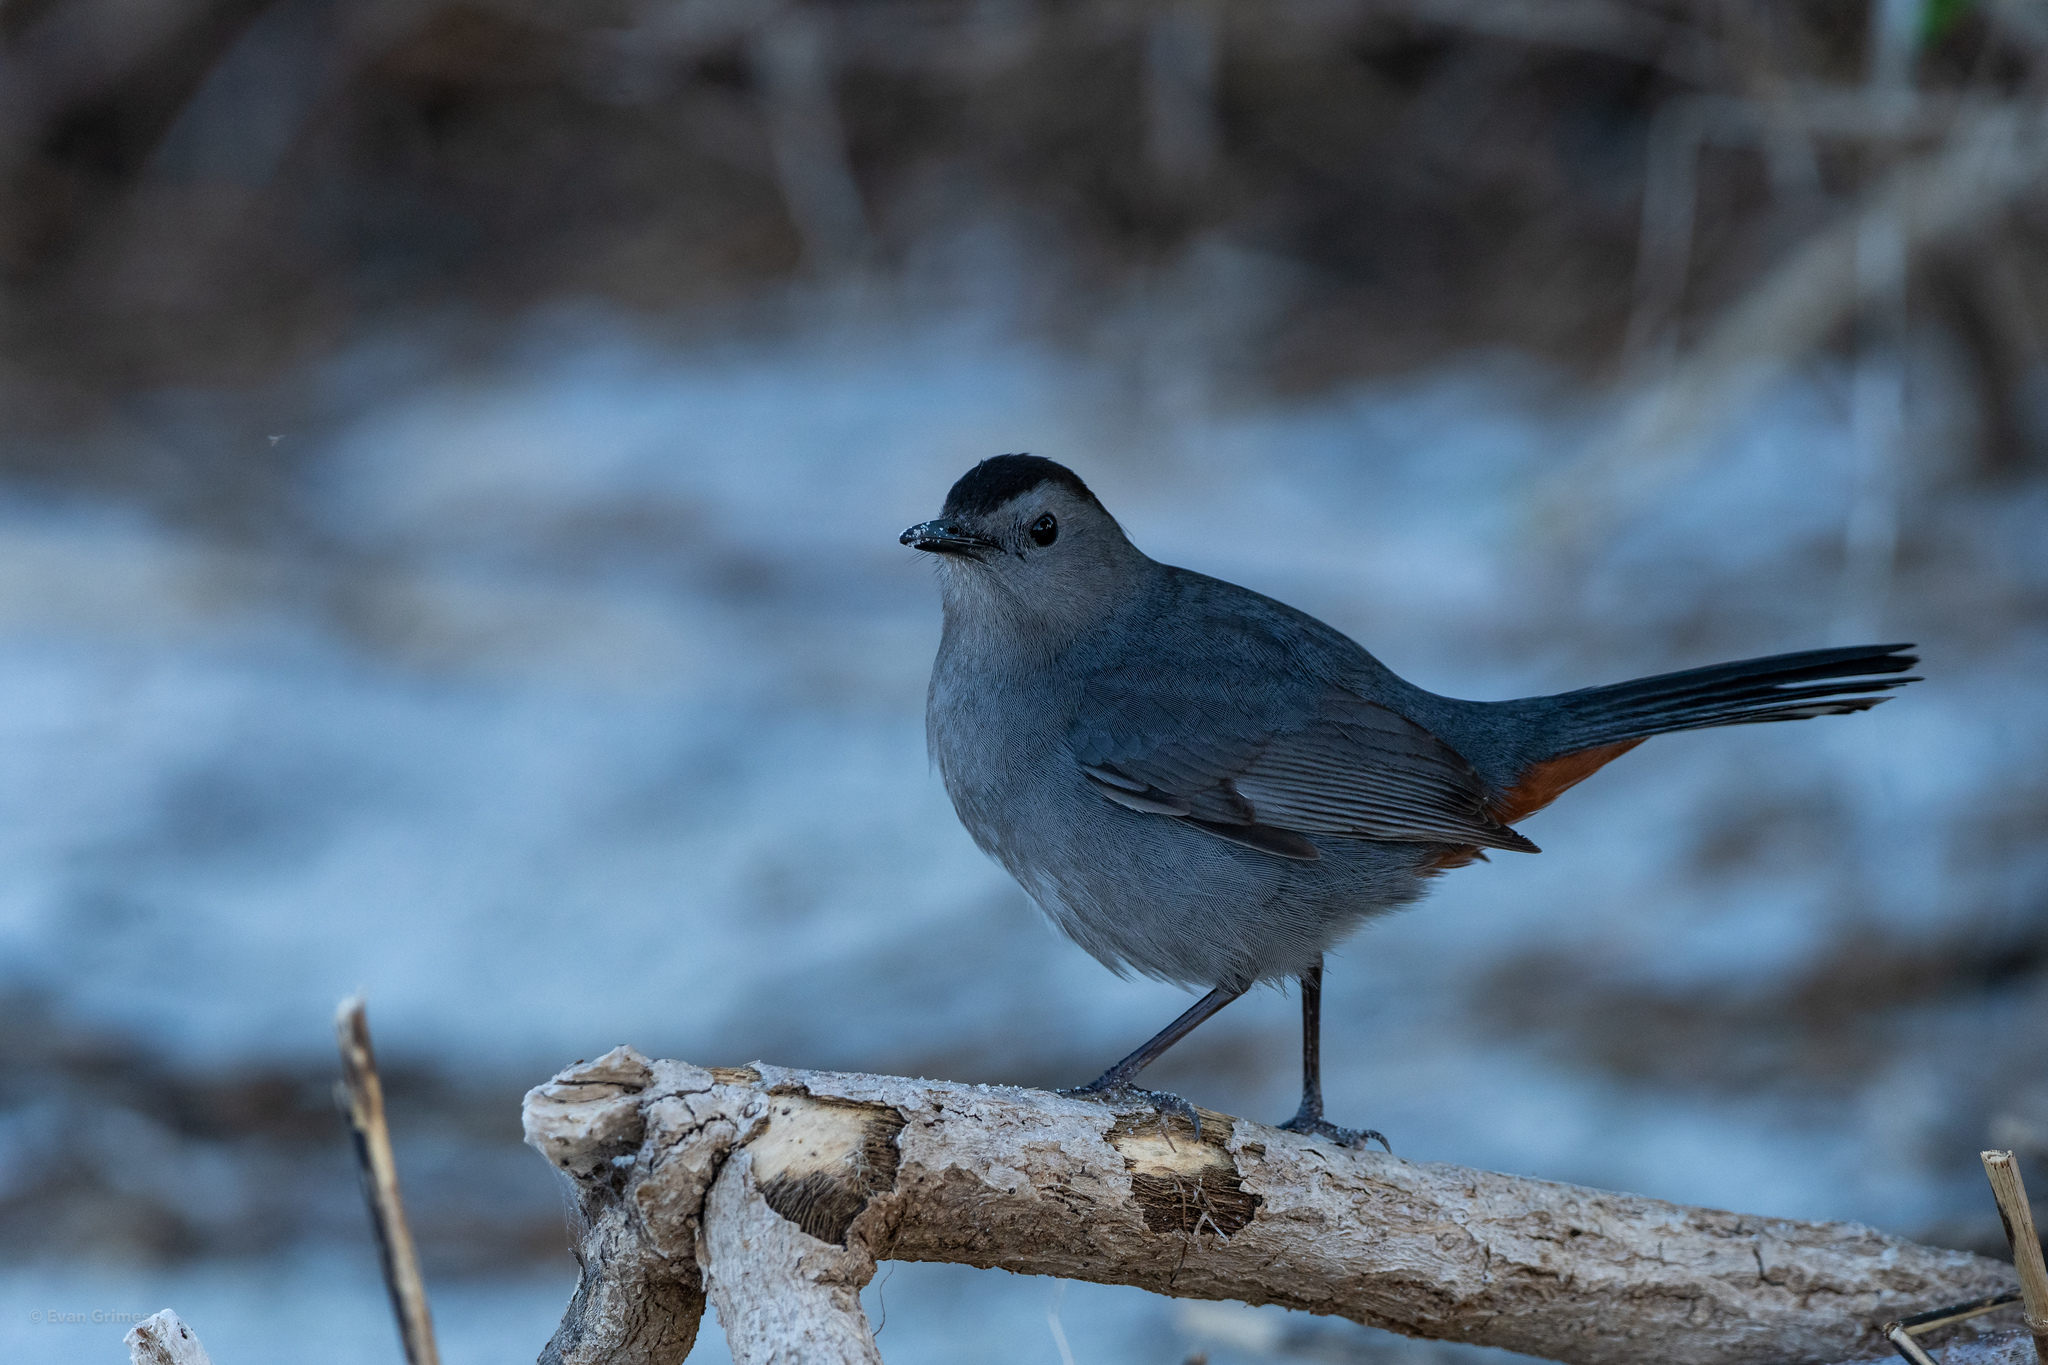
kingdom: Animalia
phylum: Chordata
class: Aves
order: Passeriformes
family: Mimidae
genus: Dumetella
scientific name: Dumetella carolinensis
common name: Gray catbird
